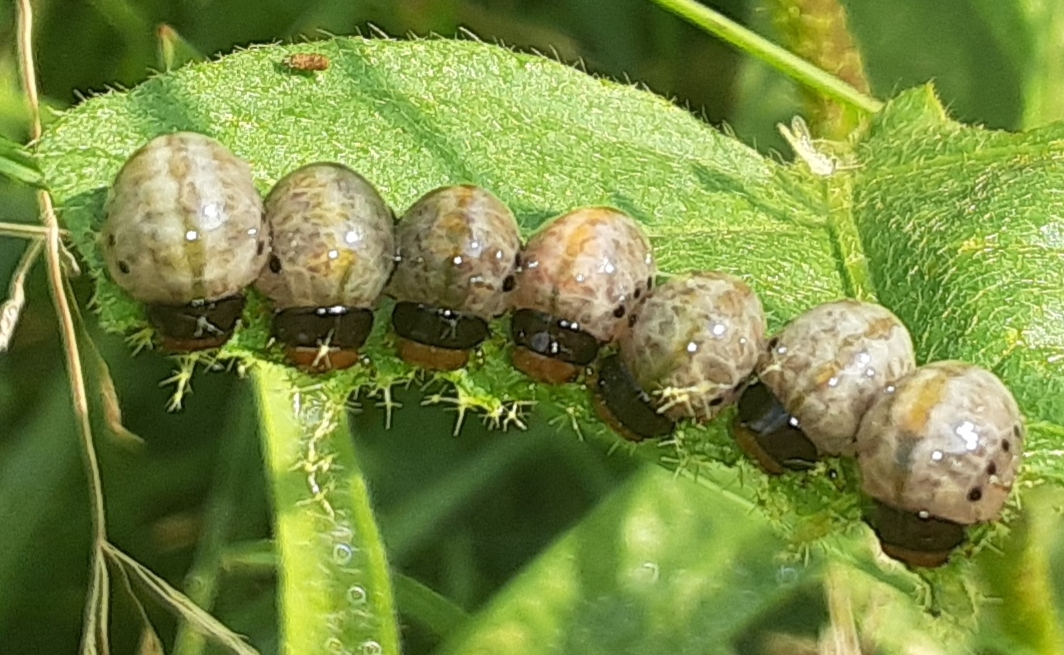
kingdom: Animalia
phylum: Arthropoda
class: Insecta
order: Coleoptera
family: Chrysomelidae
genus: Leptinotarsa
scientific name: Leptinotarsa juncta
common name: False potato beetle
